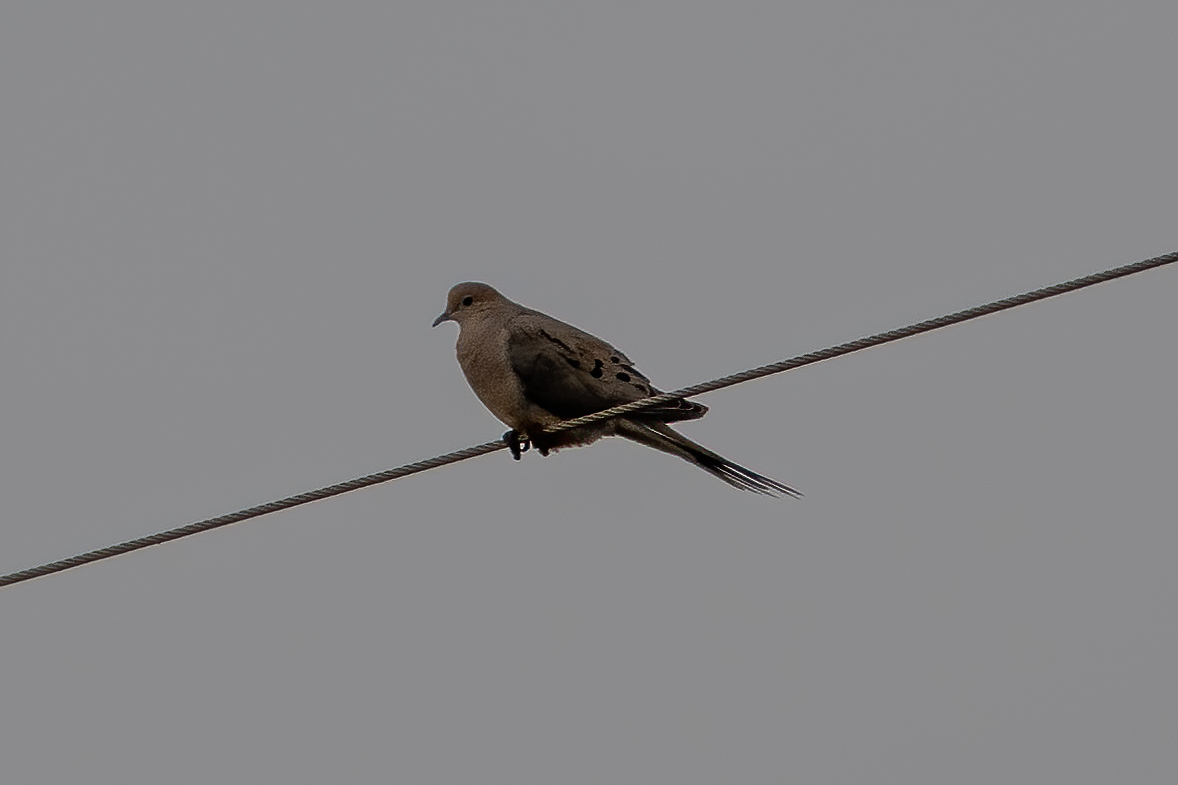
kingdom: Animalia
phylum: Chordata
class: Aves
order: Columbiformes
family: Columbidae
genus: Zenaida
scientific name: Zenaida macroura
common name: Mourning dove
